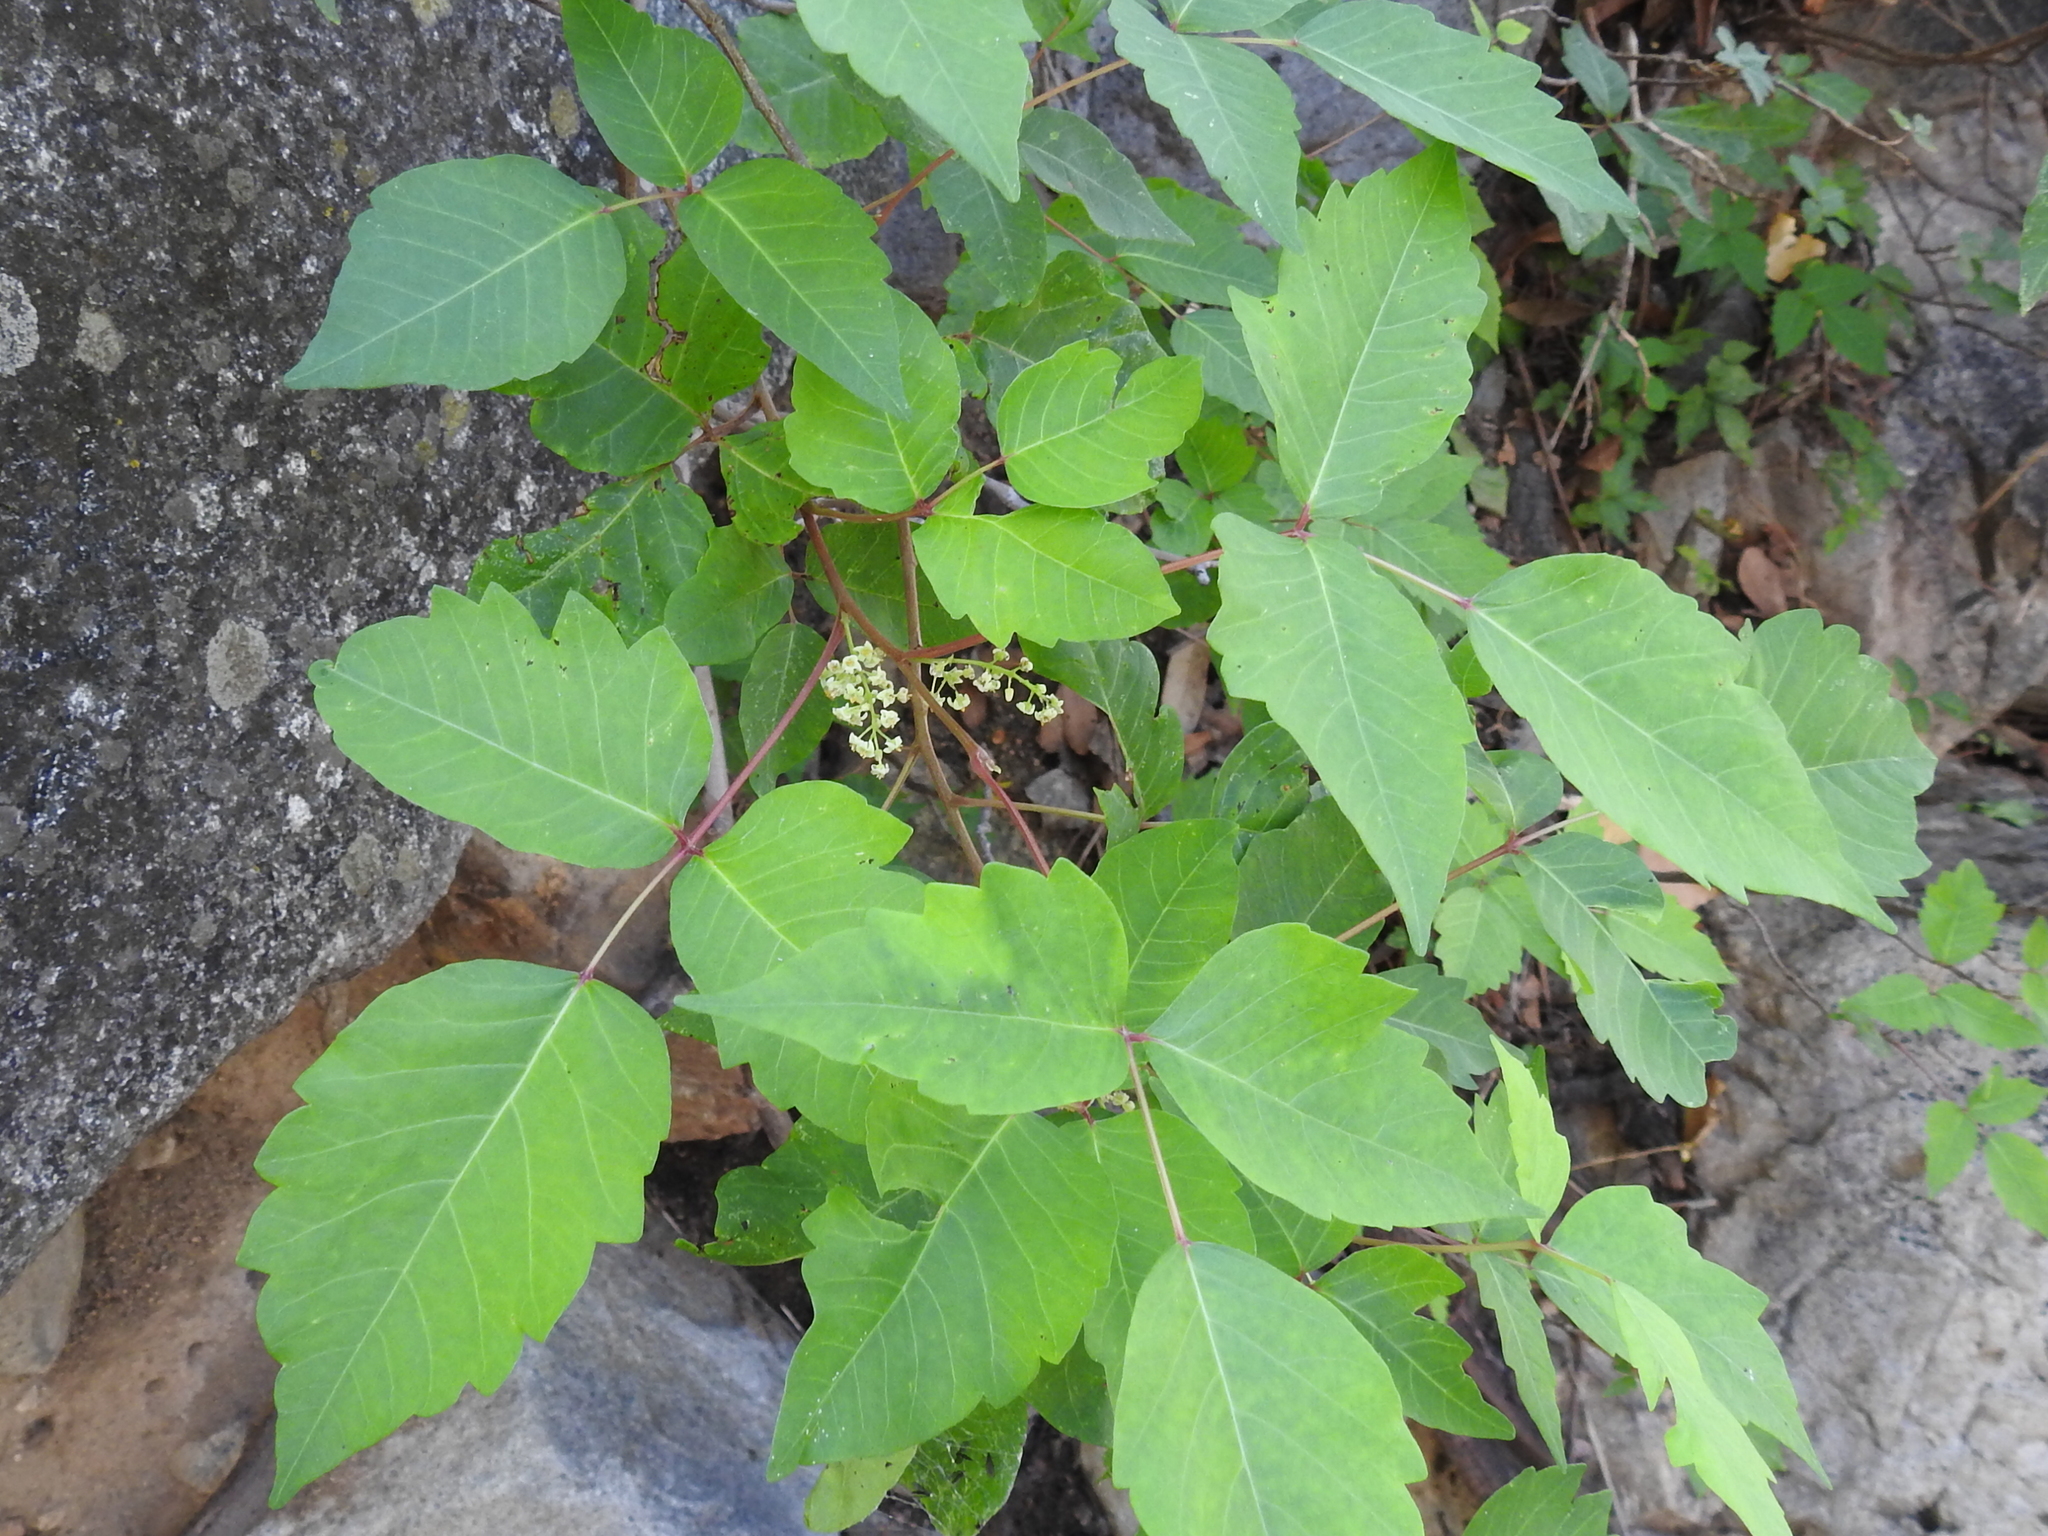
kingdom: Plantae
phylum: Tracheophyta
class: Magnoliopsida
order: Sapindales
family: Anacardiaceae
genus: Toxicodendron
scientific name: Toxicodendron rydbergii
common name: Rydberg's poison-ivy
